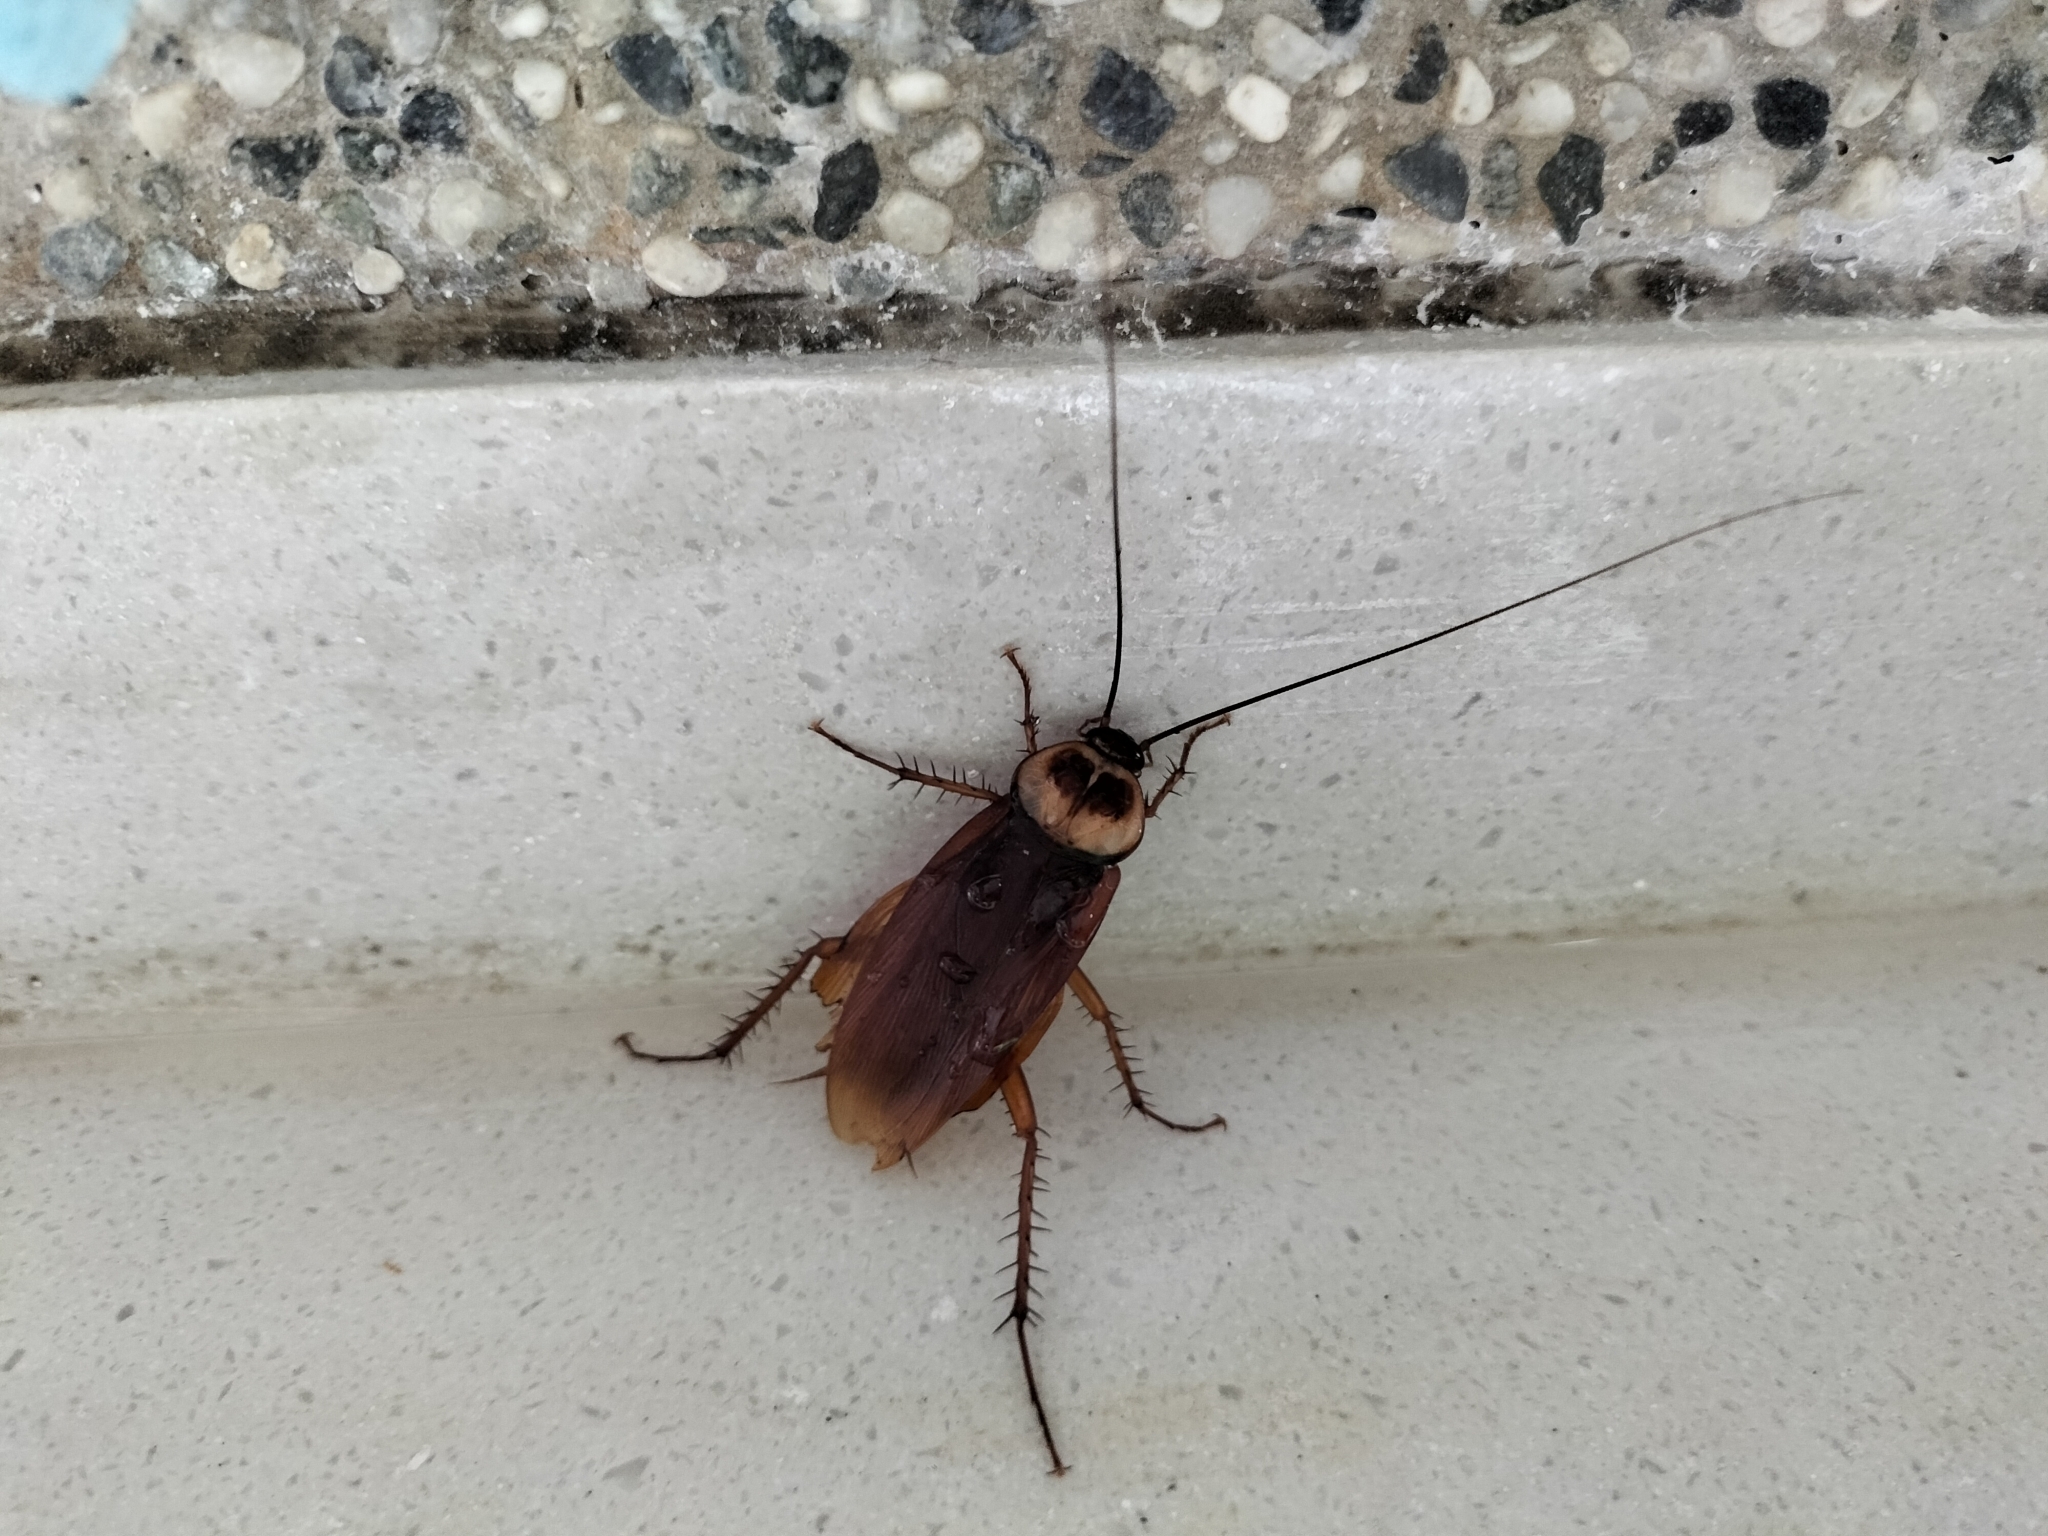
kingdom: Animalia
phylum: Arthropoda
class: Insecta
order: Blattodea
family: Blattidae
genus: Periplaneta
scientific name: Periplaneta americana
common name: American cockroach
